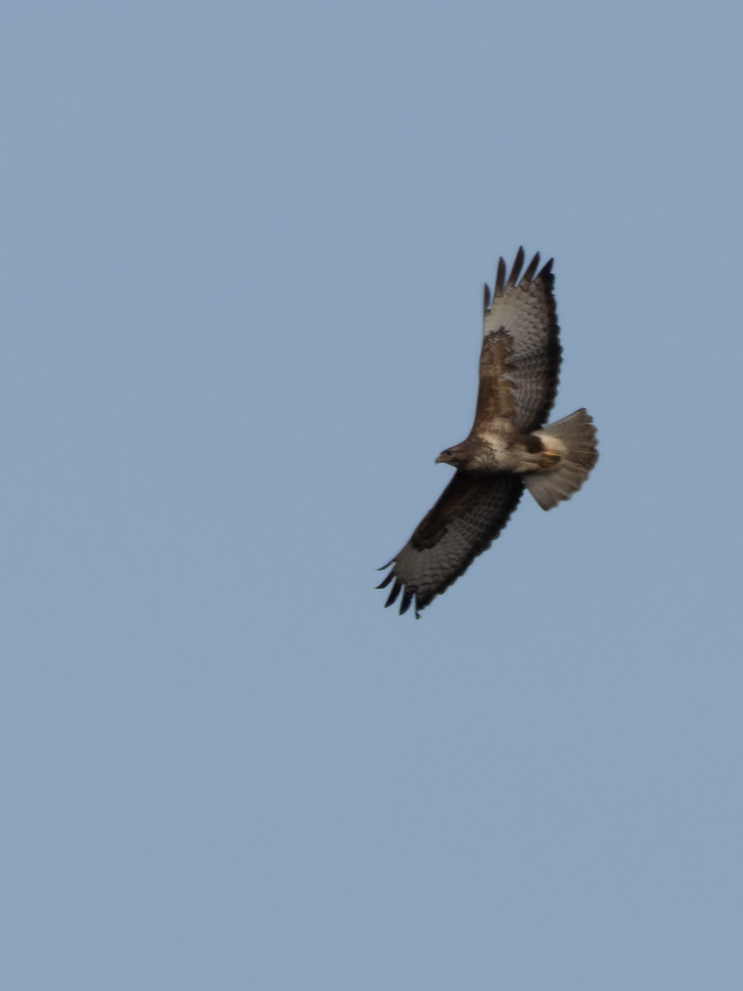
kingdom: Animalia
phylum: Chordata
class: Aves
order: Accipitriformes
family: Accipitridae
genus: Buteo
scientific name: Buteo buteo
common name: Common buzzard
